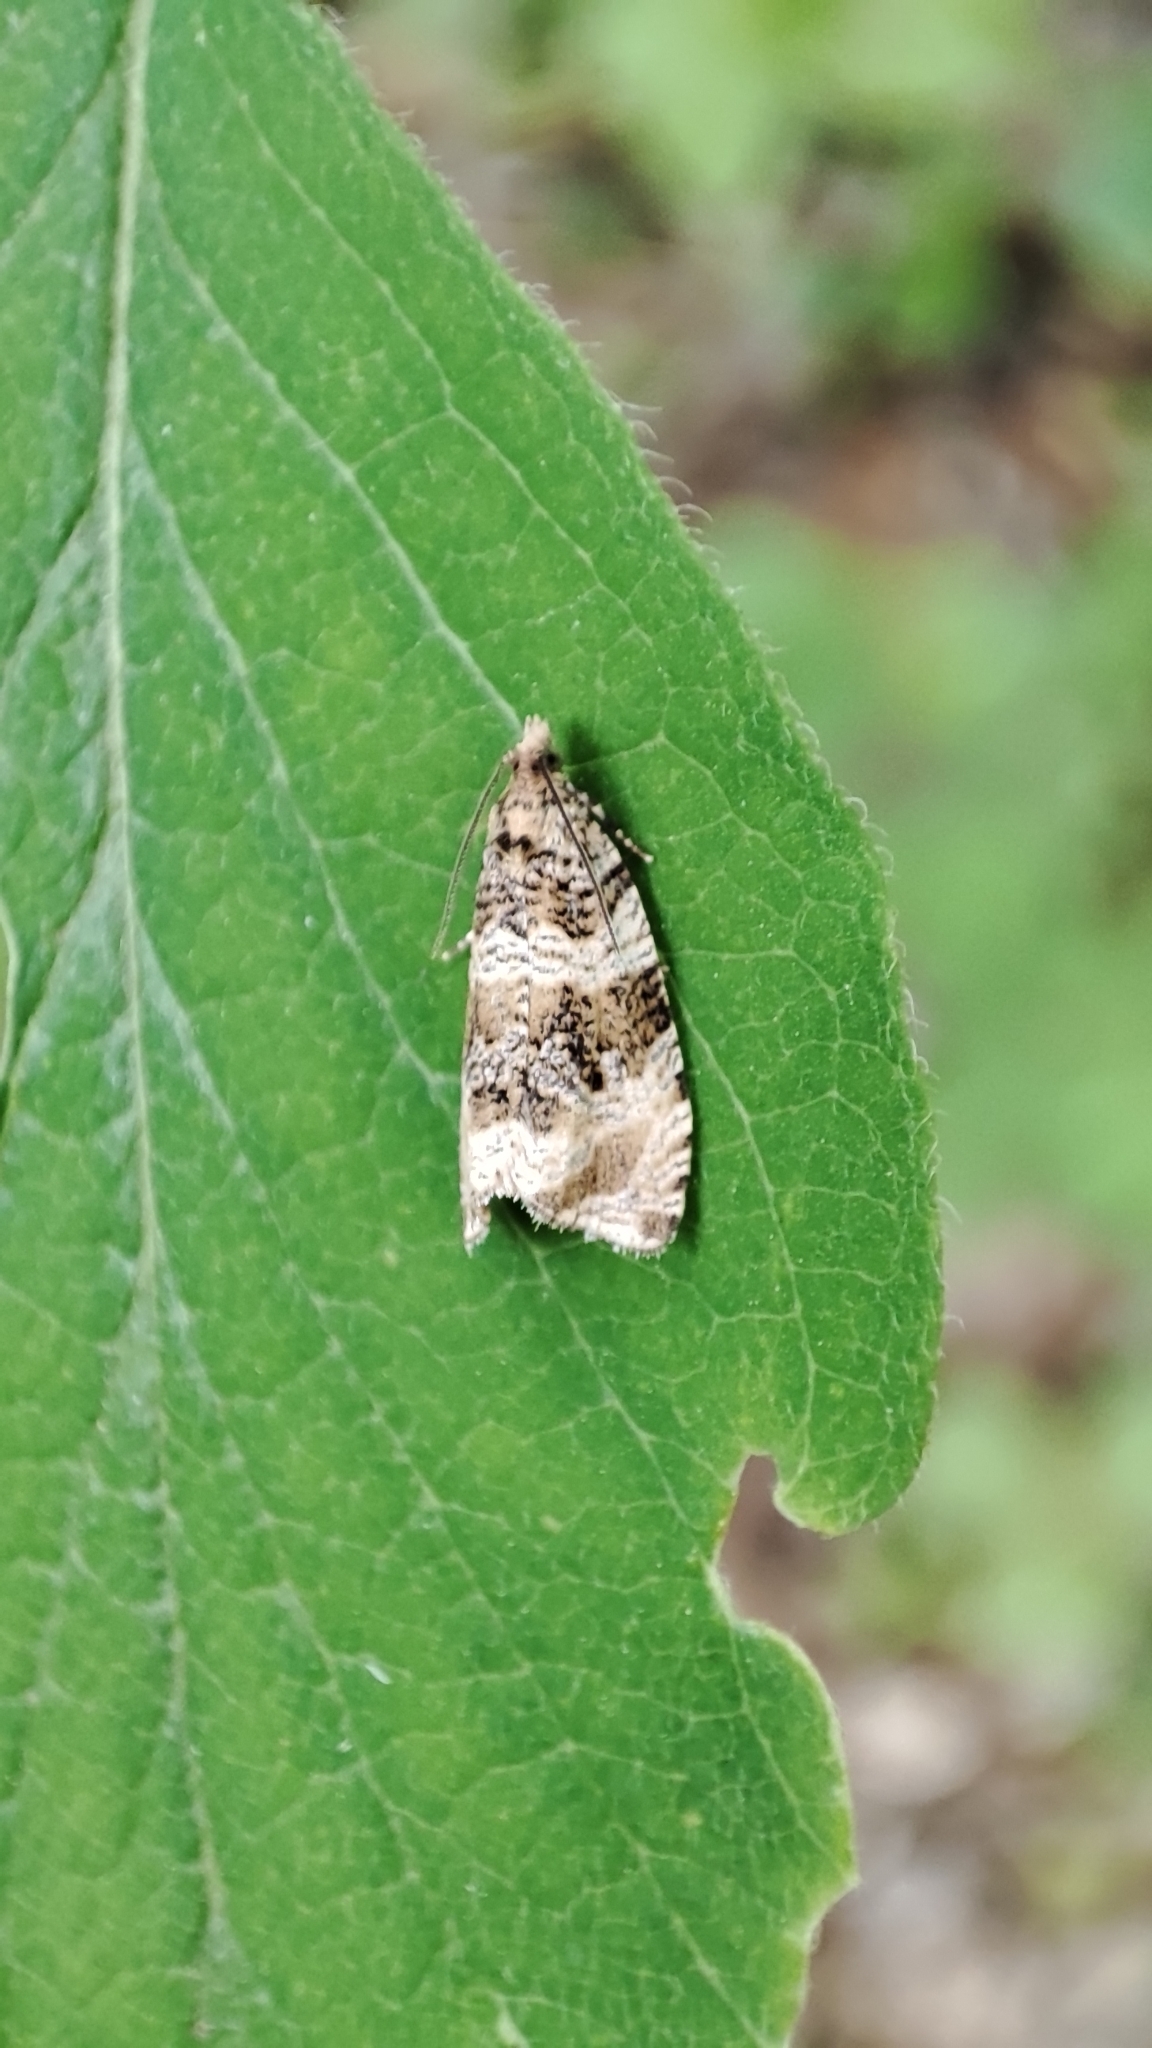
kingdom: Animalia
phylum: Arthropoda
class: Insecta
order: Lepidoptera
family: Tortricidae
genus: Syricoris
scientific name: Syricoris lacunana
